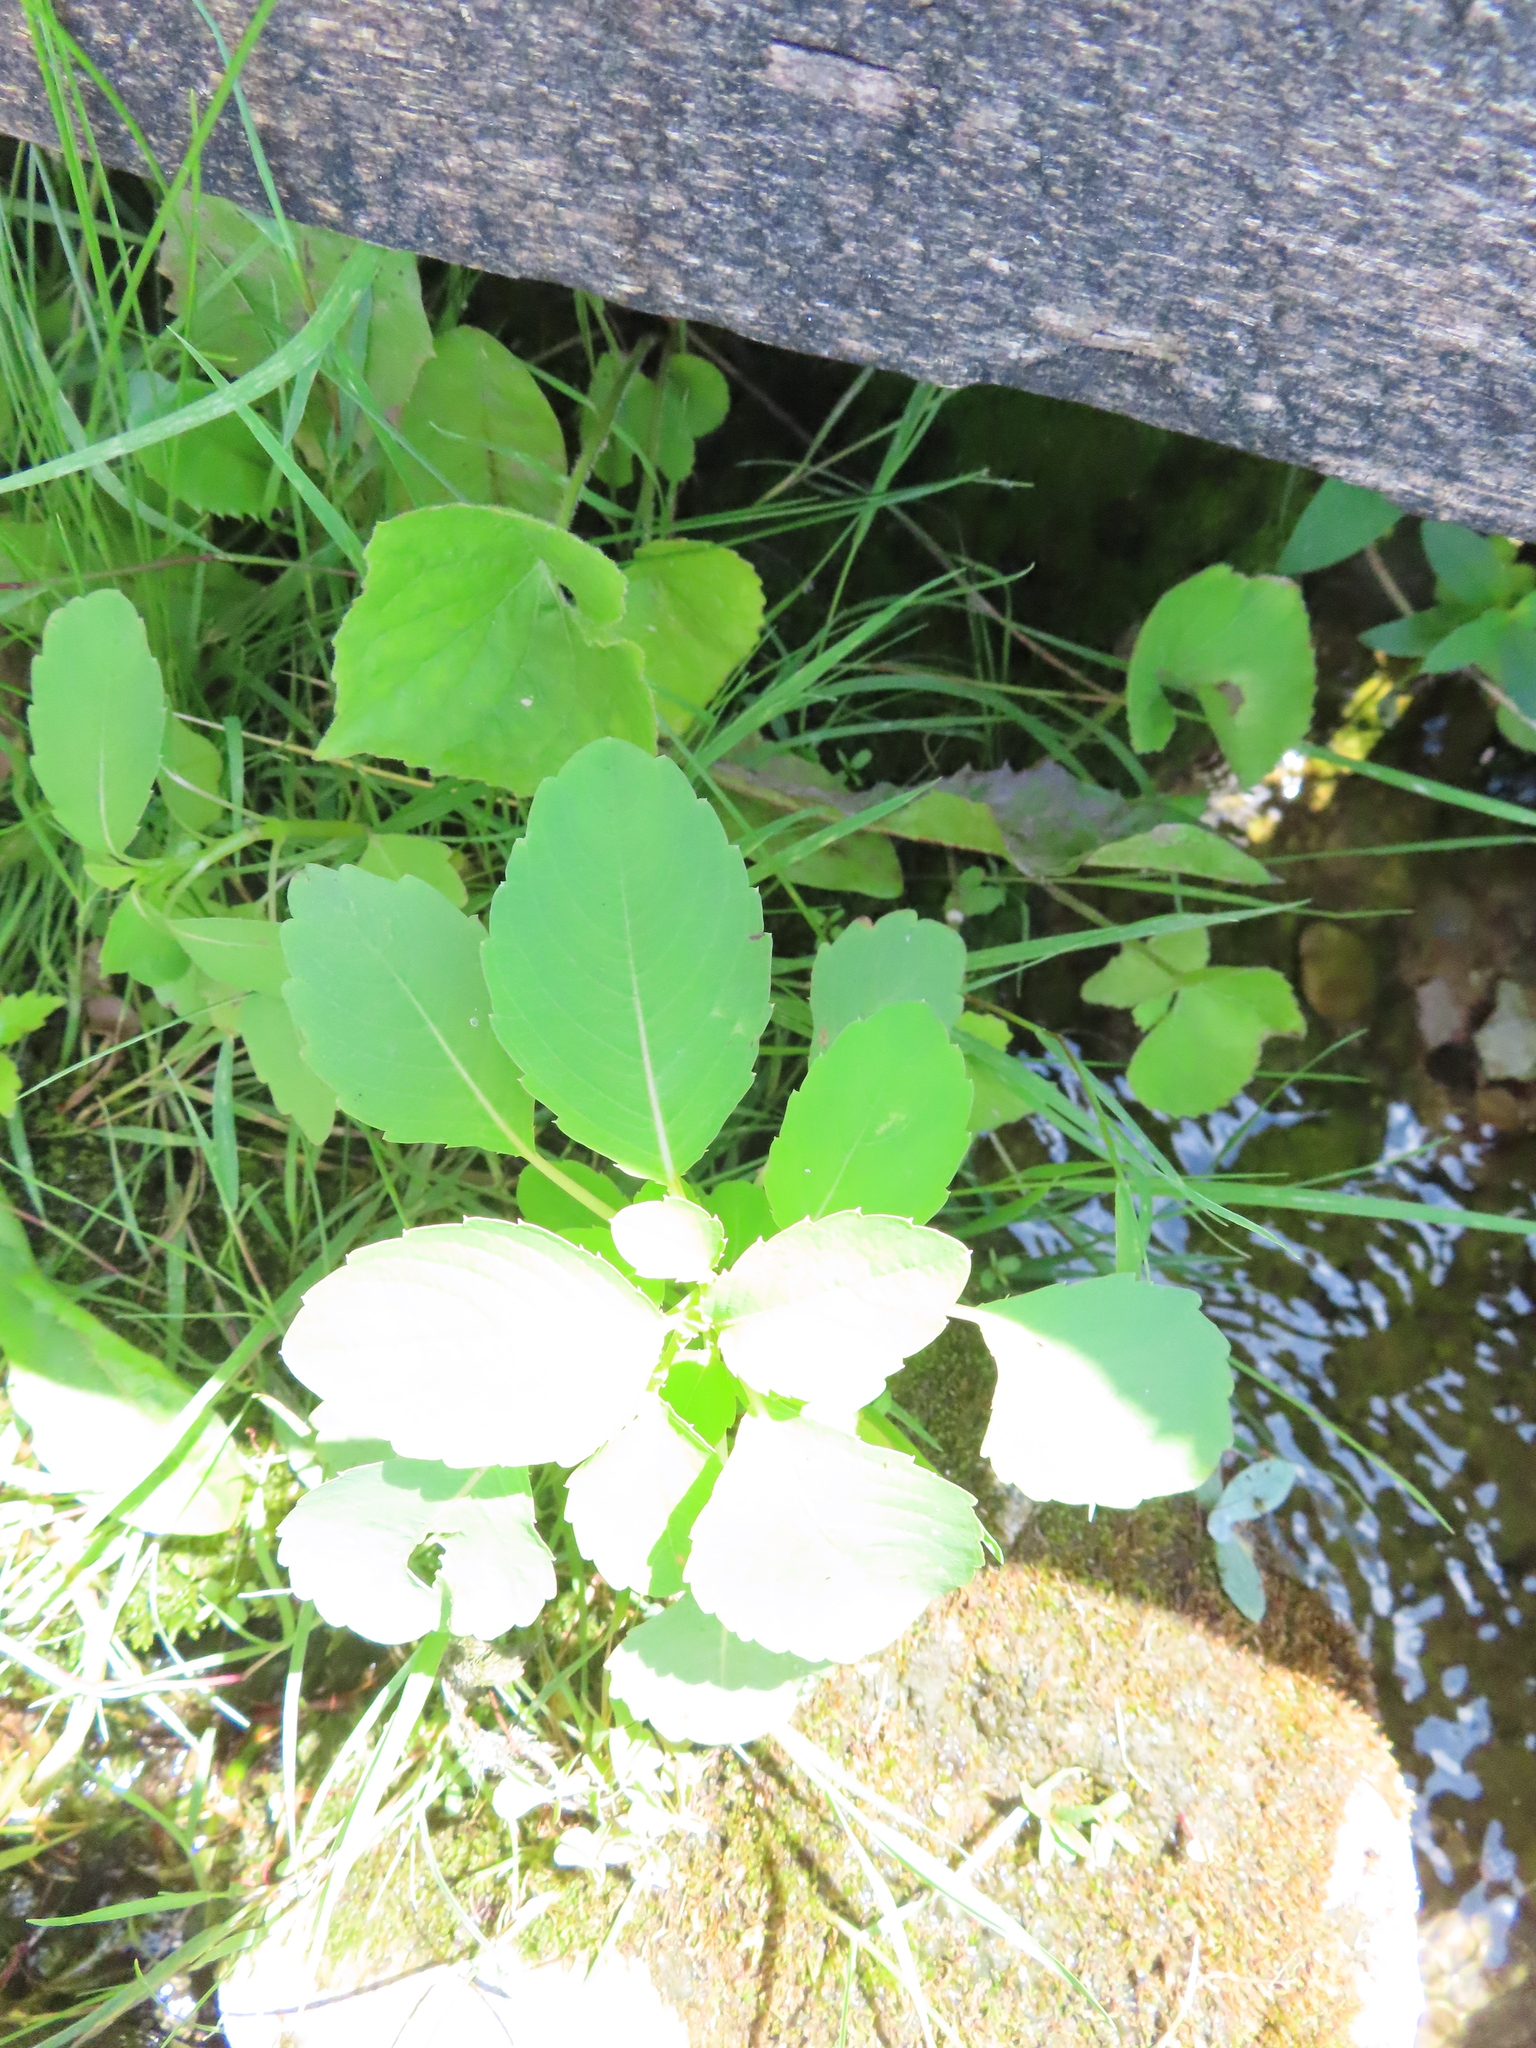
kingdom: Plantae
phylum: Tracheophyta
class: Magnoliopsida
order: Ericales
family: Balsaminaceae
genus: Impatiens
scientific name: Impatiens
